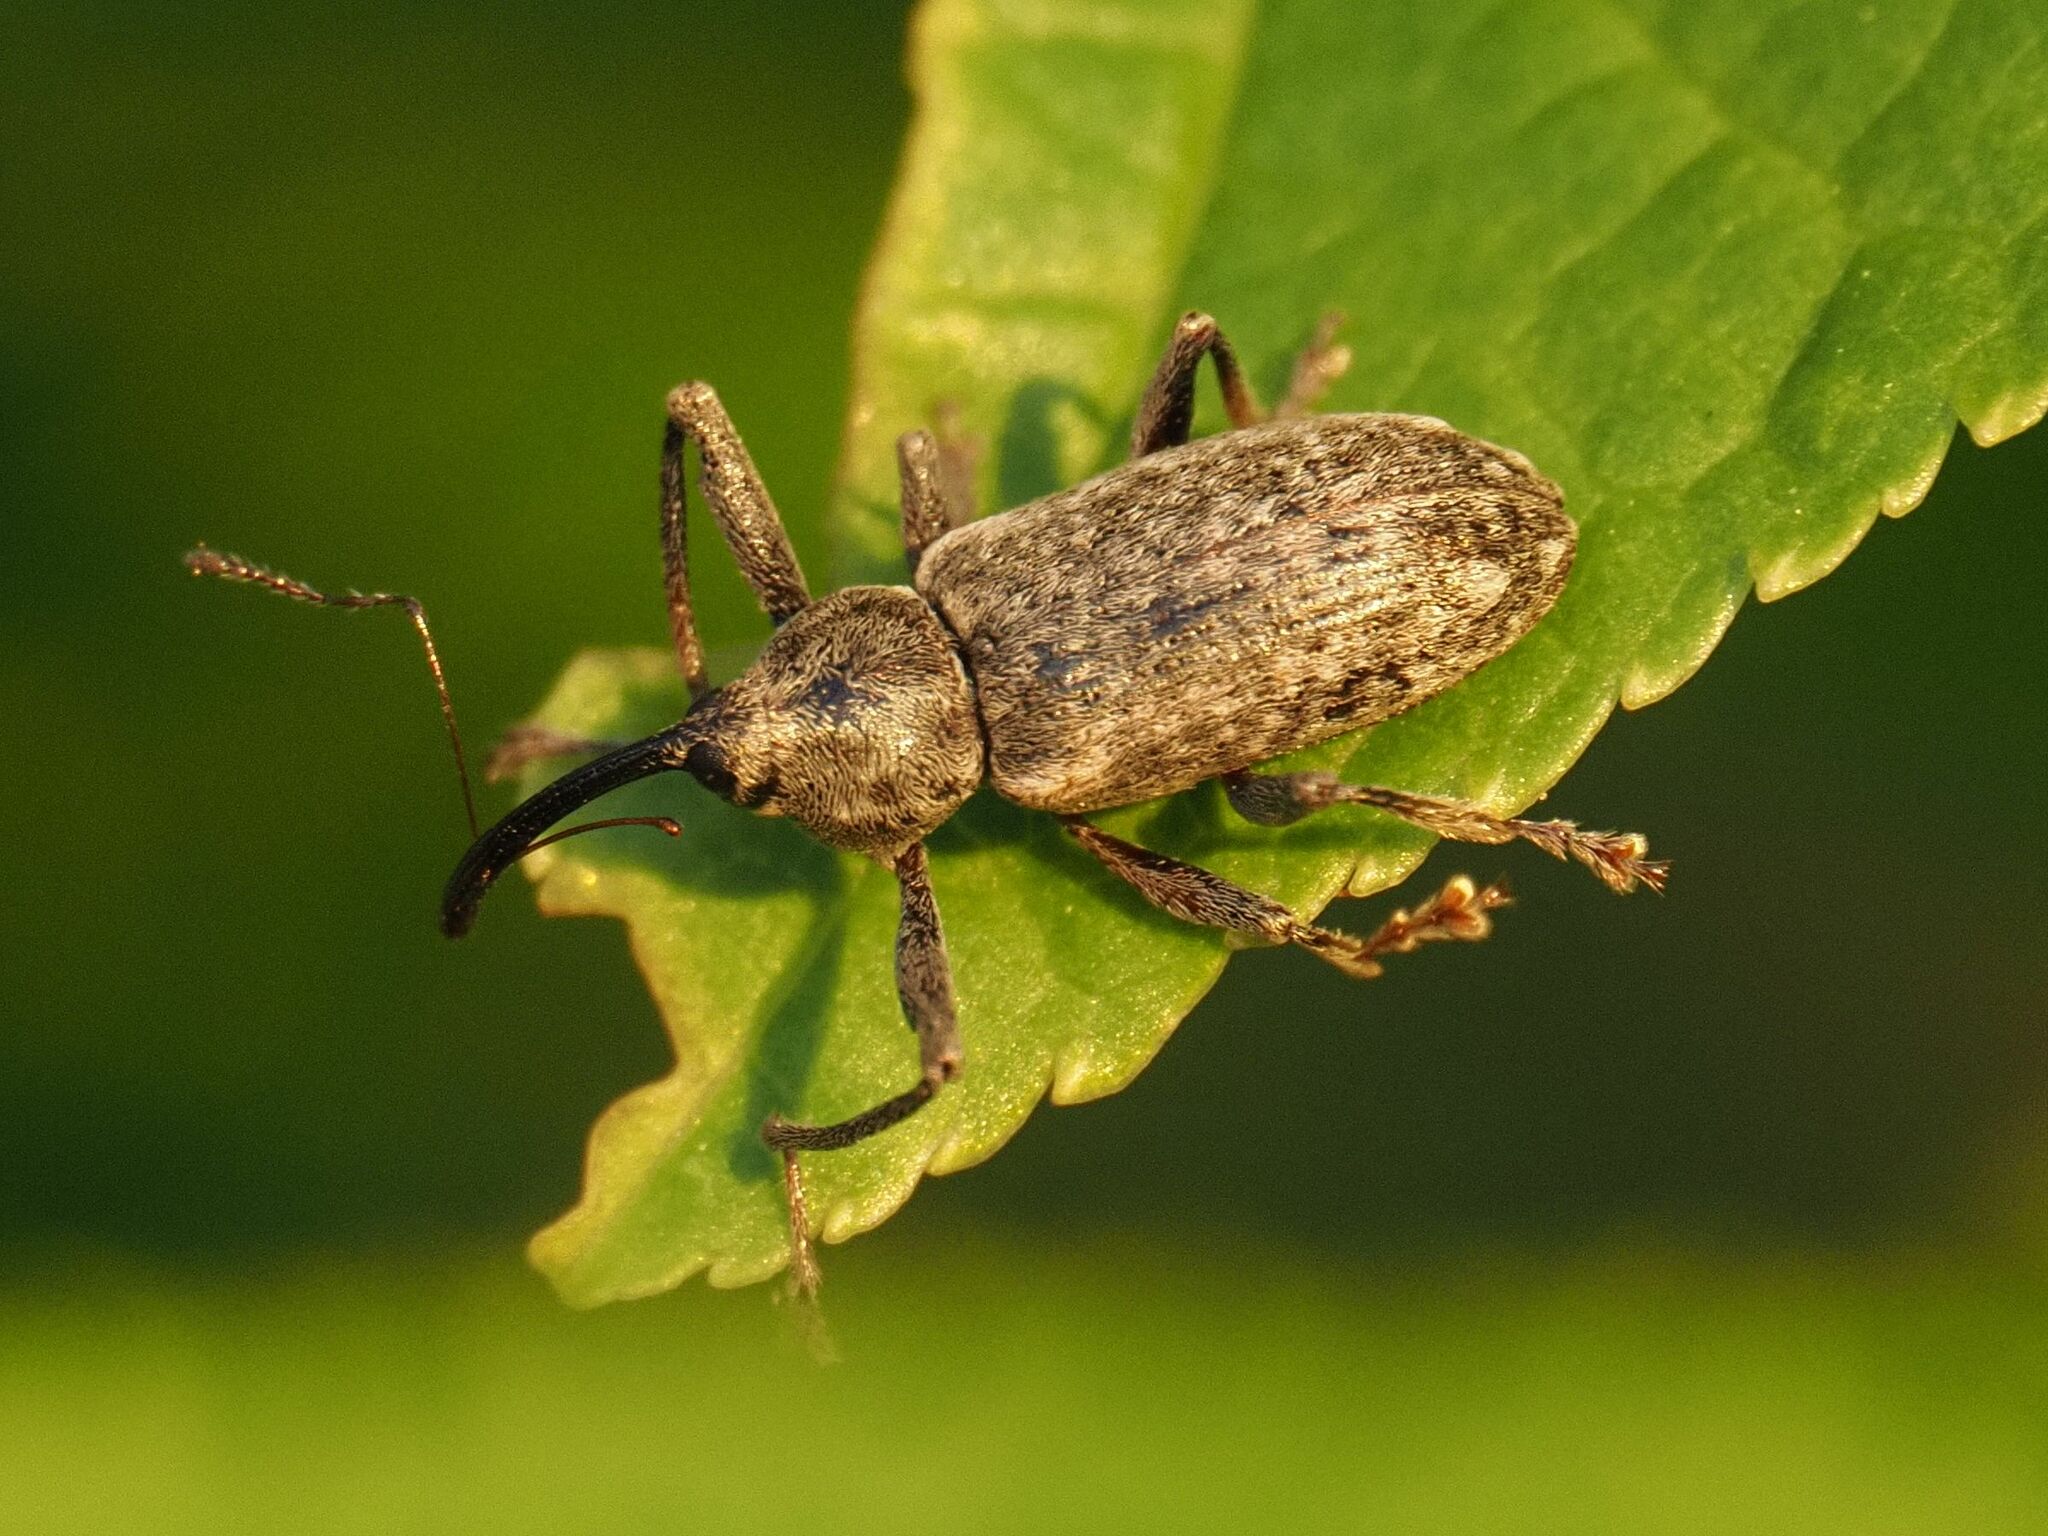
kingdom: Animalia
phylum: Arthropoda
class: Insecta
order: Coleoptera
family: Curculionidae
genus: Dorytomus
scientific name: Dorytomus longimanus
